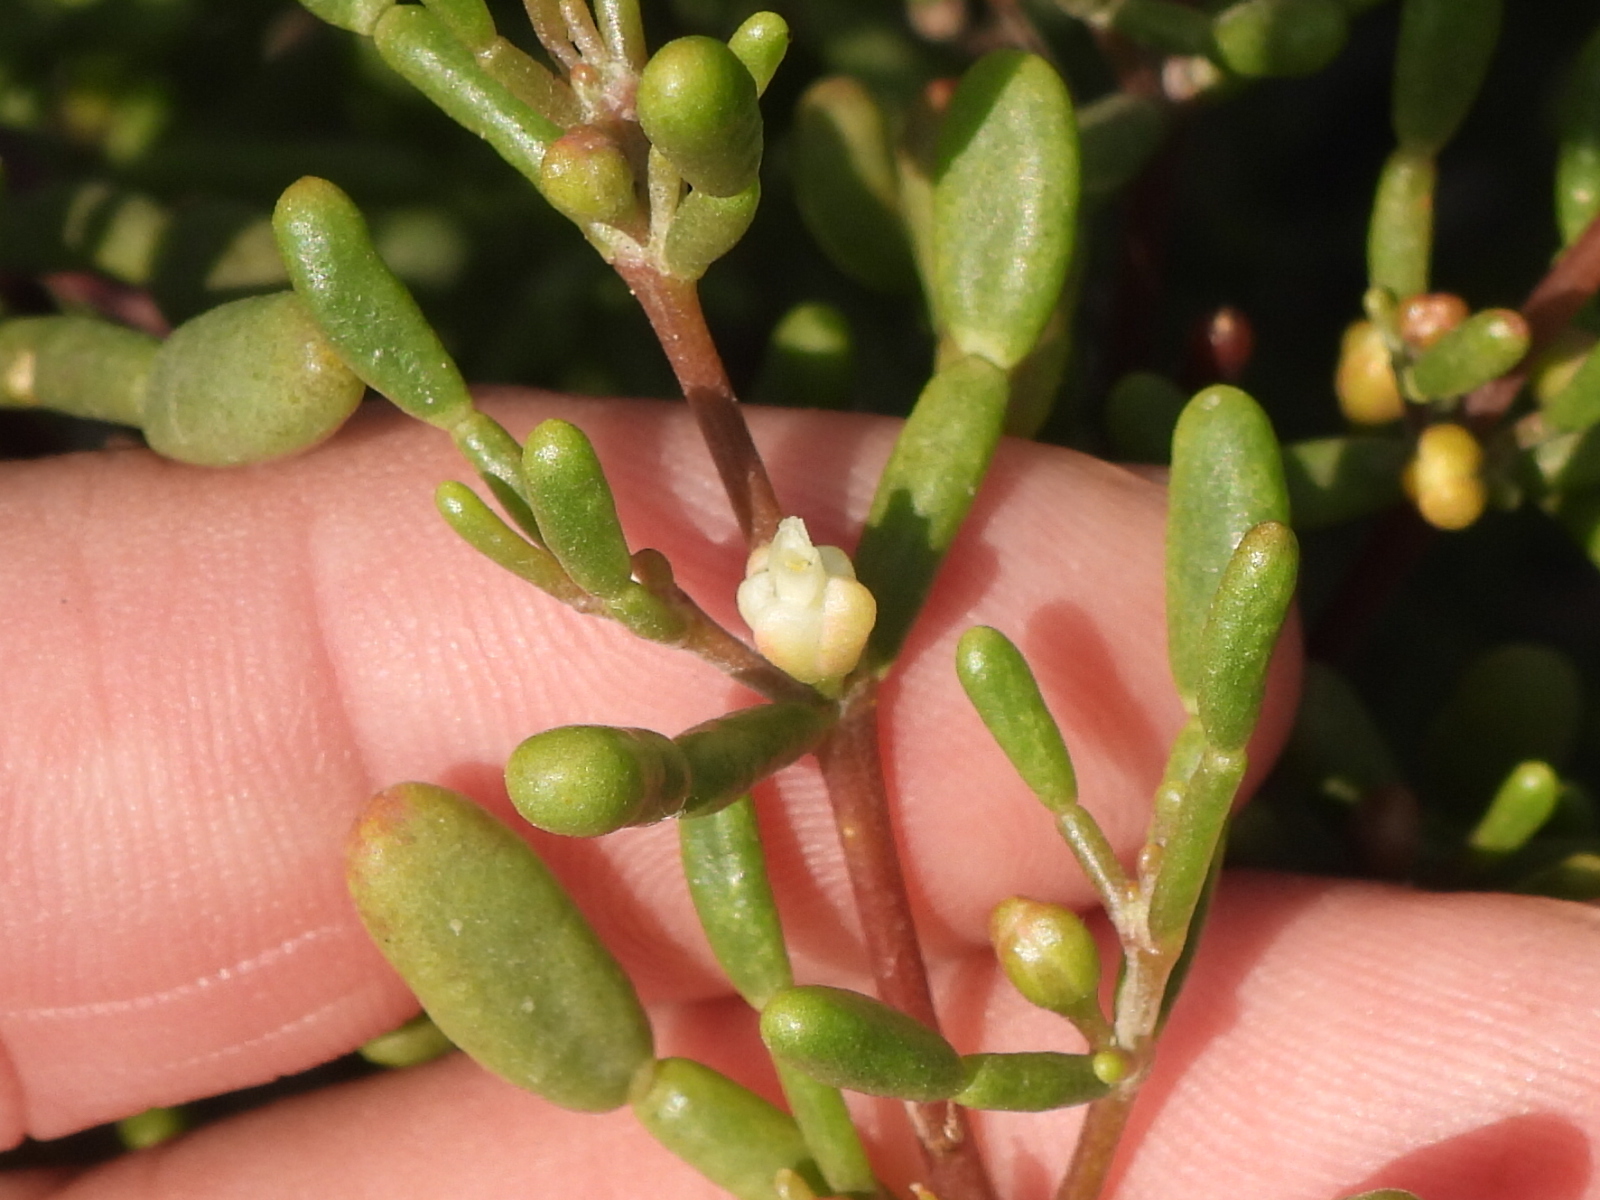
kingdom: Plantae
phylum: Tracheophyta
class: Magnoliopsida
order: Zygophyllales
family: Zygophyllaceae
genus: Tetraena
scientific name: Tetraena hamiensis
